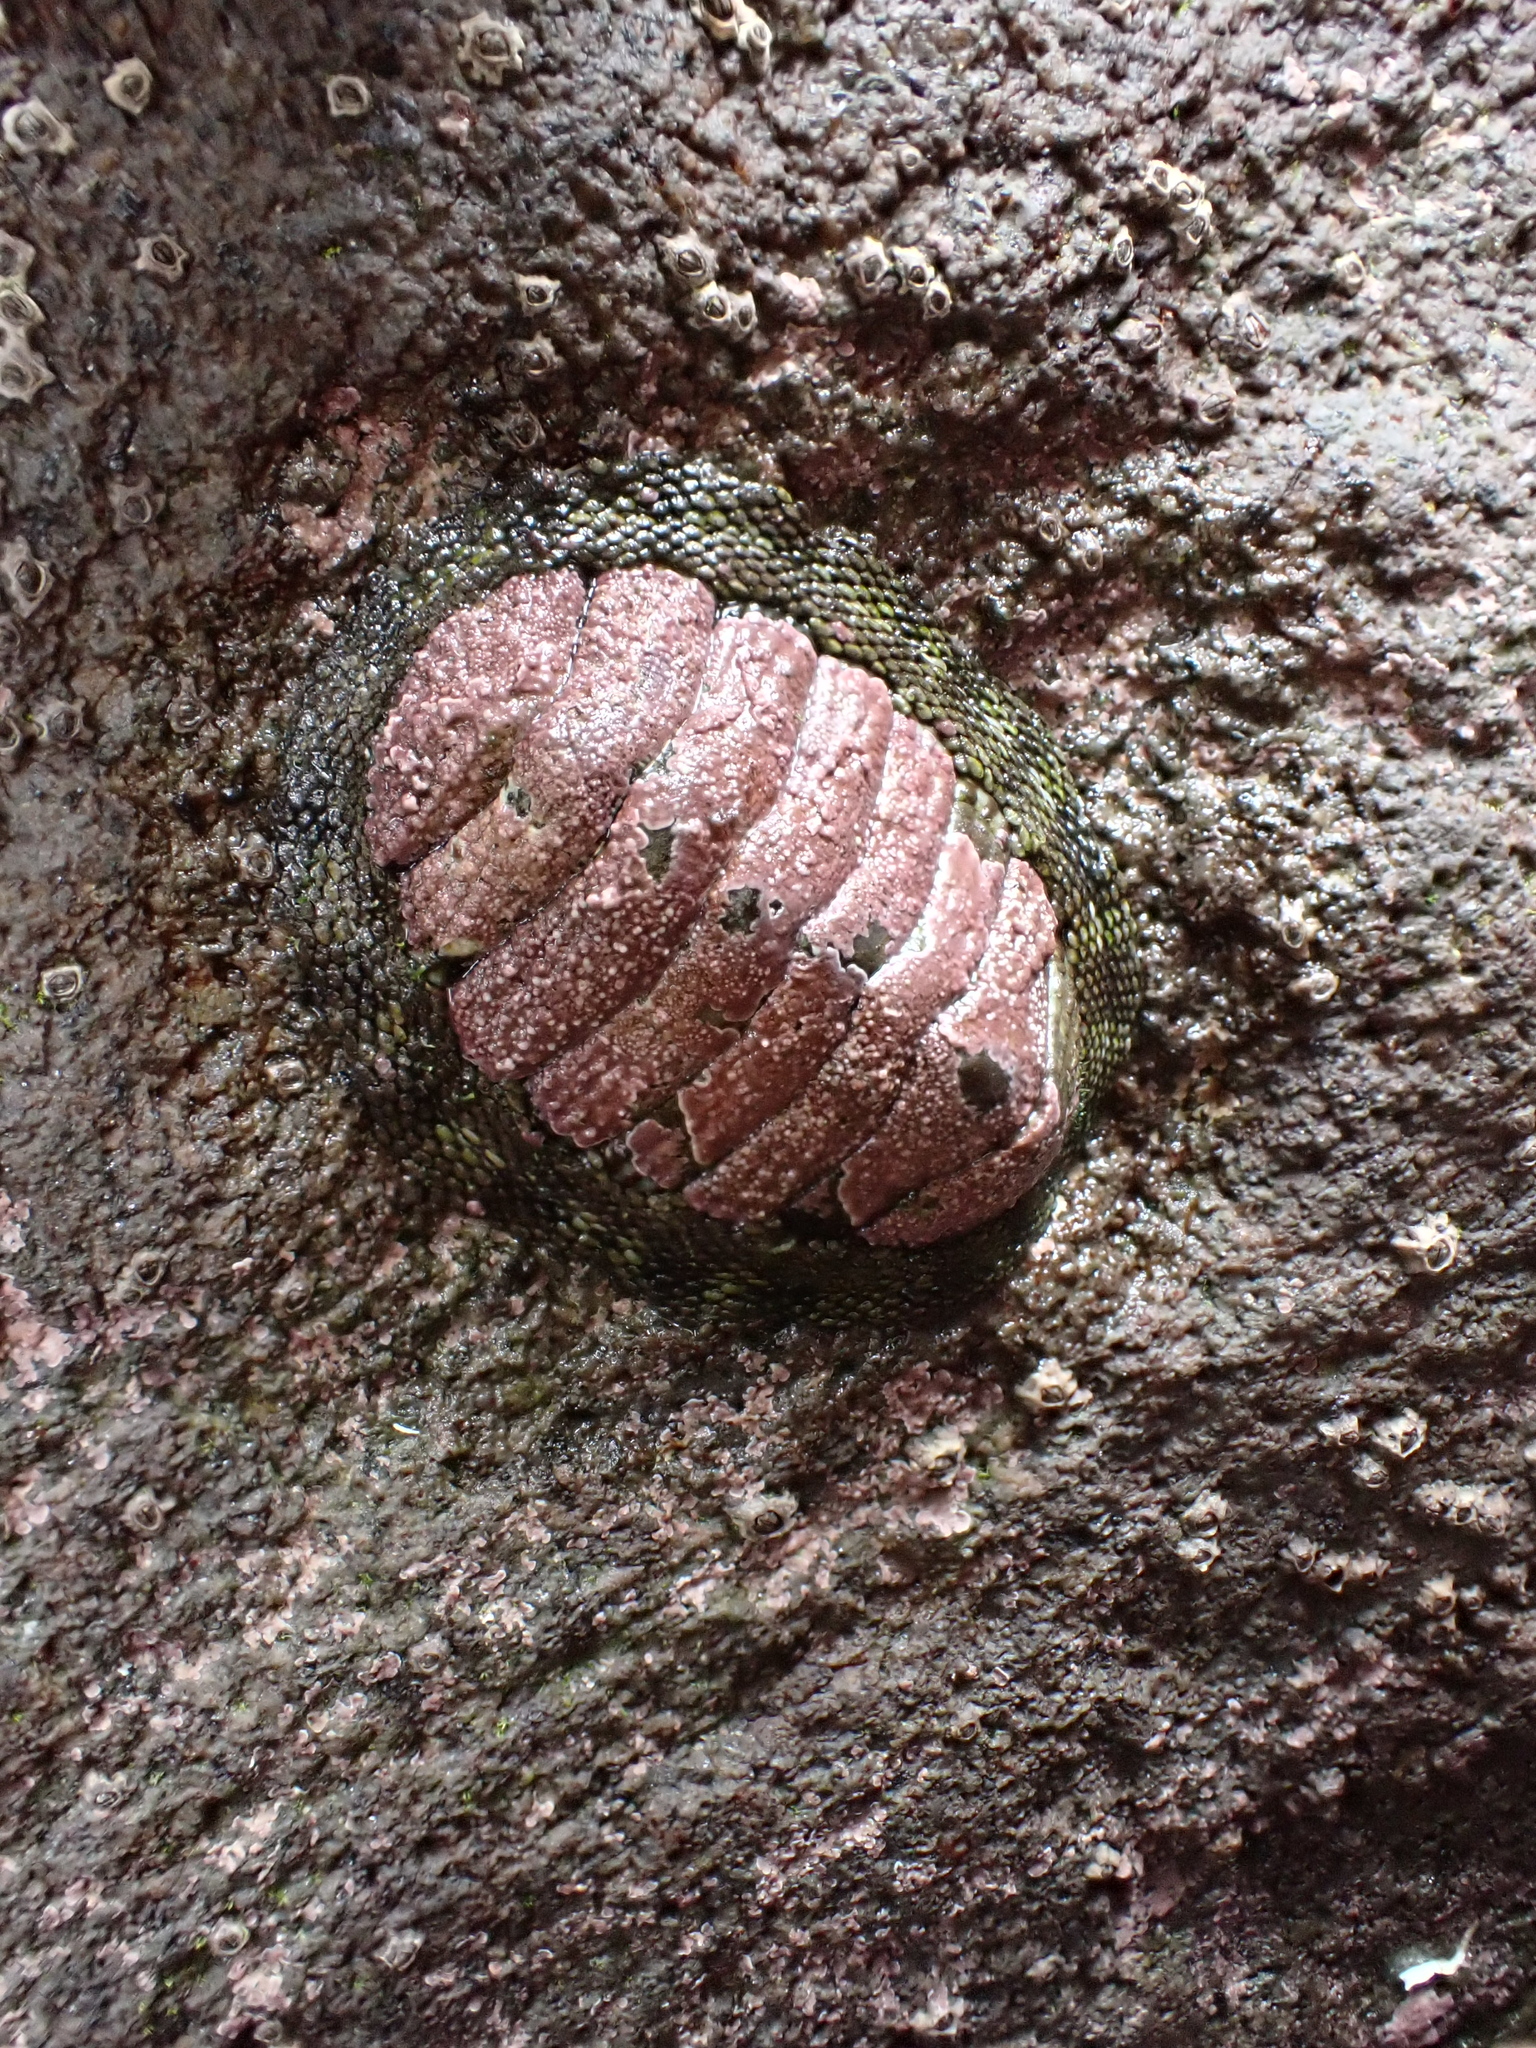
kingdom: Animalia
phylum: Mollusca
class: Polyplacophora
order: Chitonida
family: Chitonidae
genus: Sypharochiton
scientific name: Sypharochiton pelliserpentis
